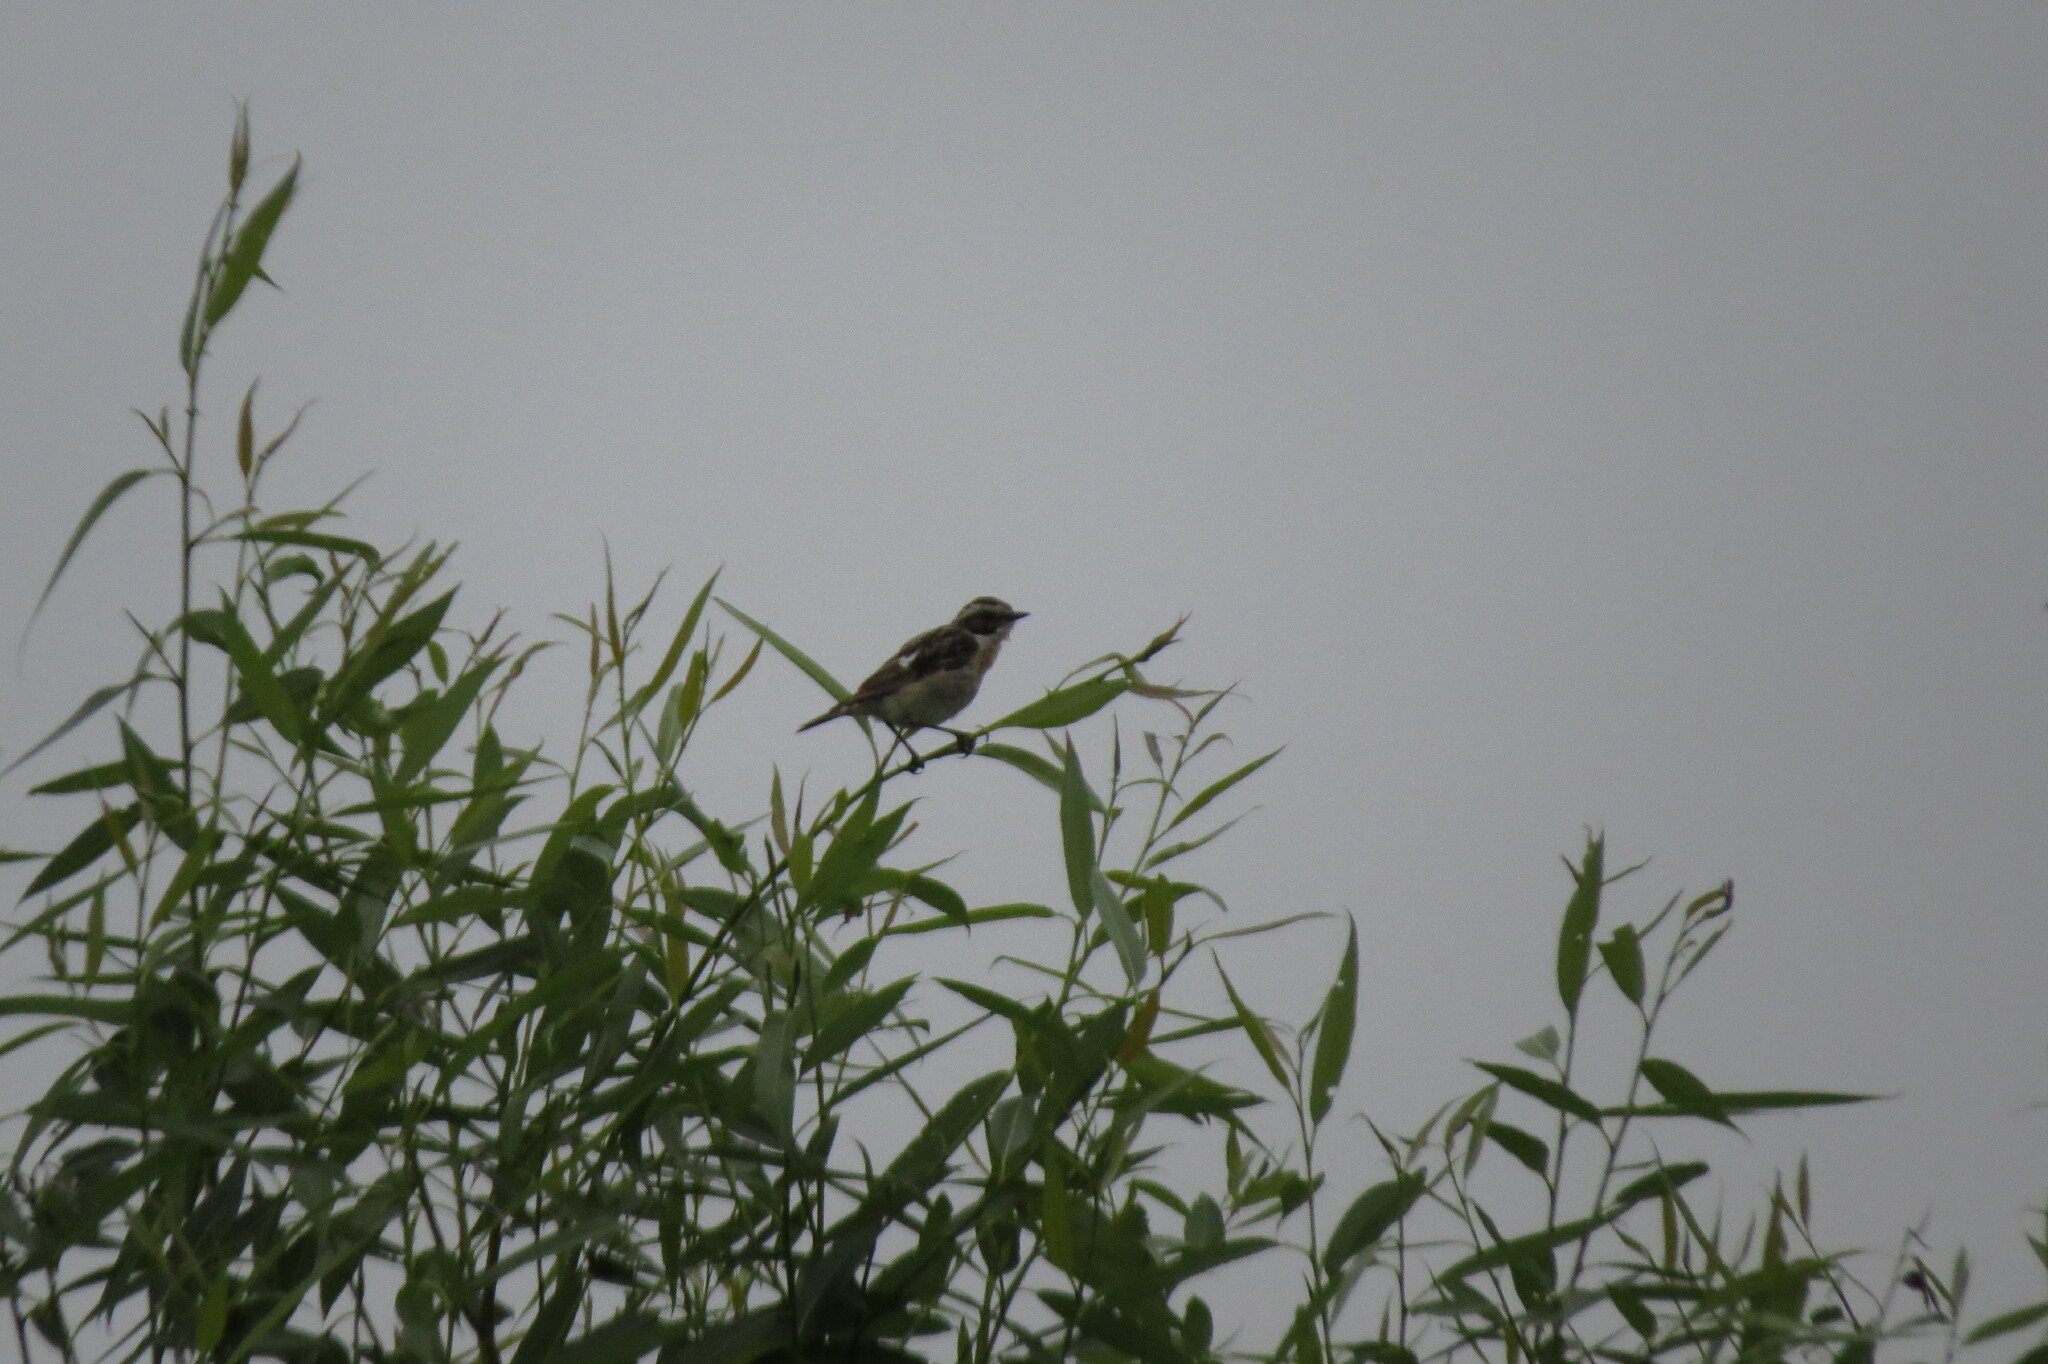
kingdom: Animalia
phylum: Chordata
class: Aves
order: Passeriformes
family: Muscicapidae
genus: Saxicola
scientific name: Saxicola rubetra
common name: Whinchat
